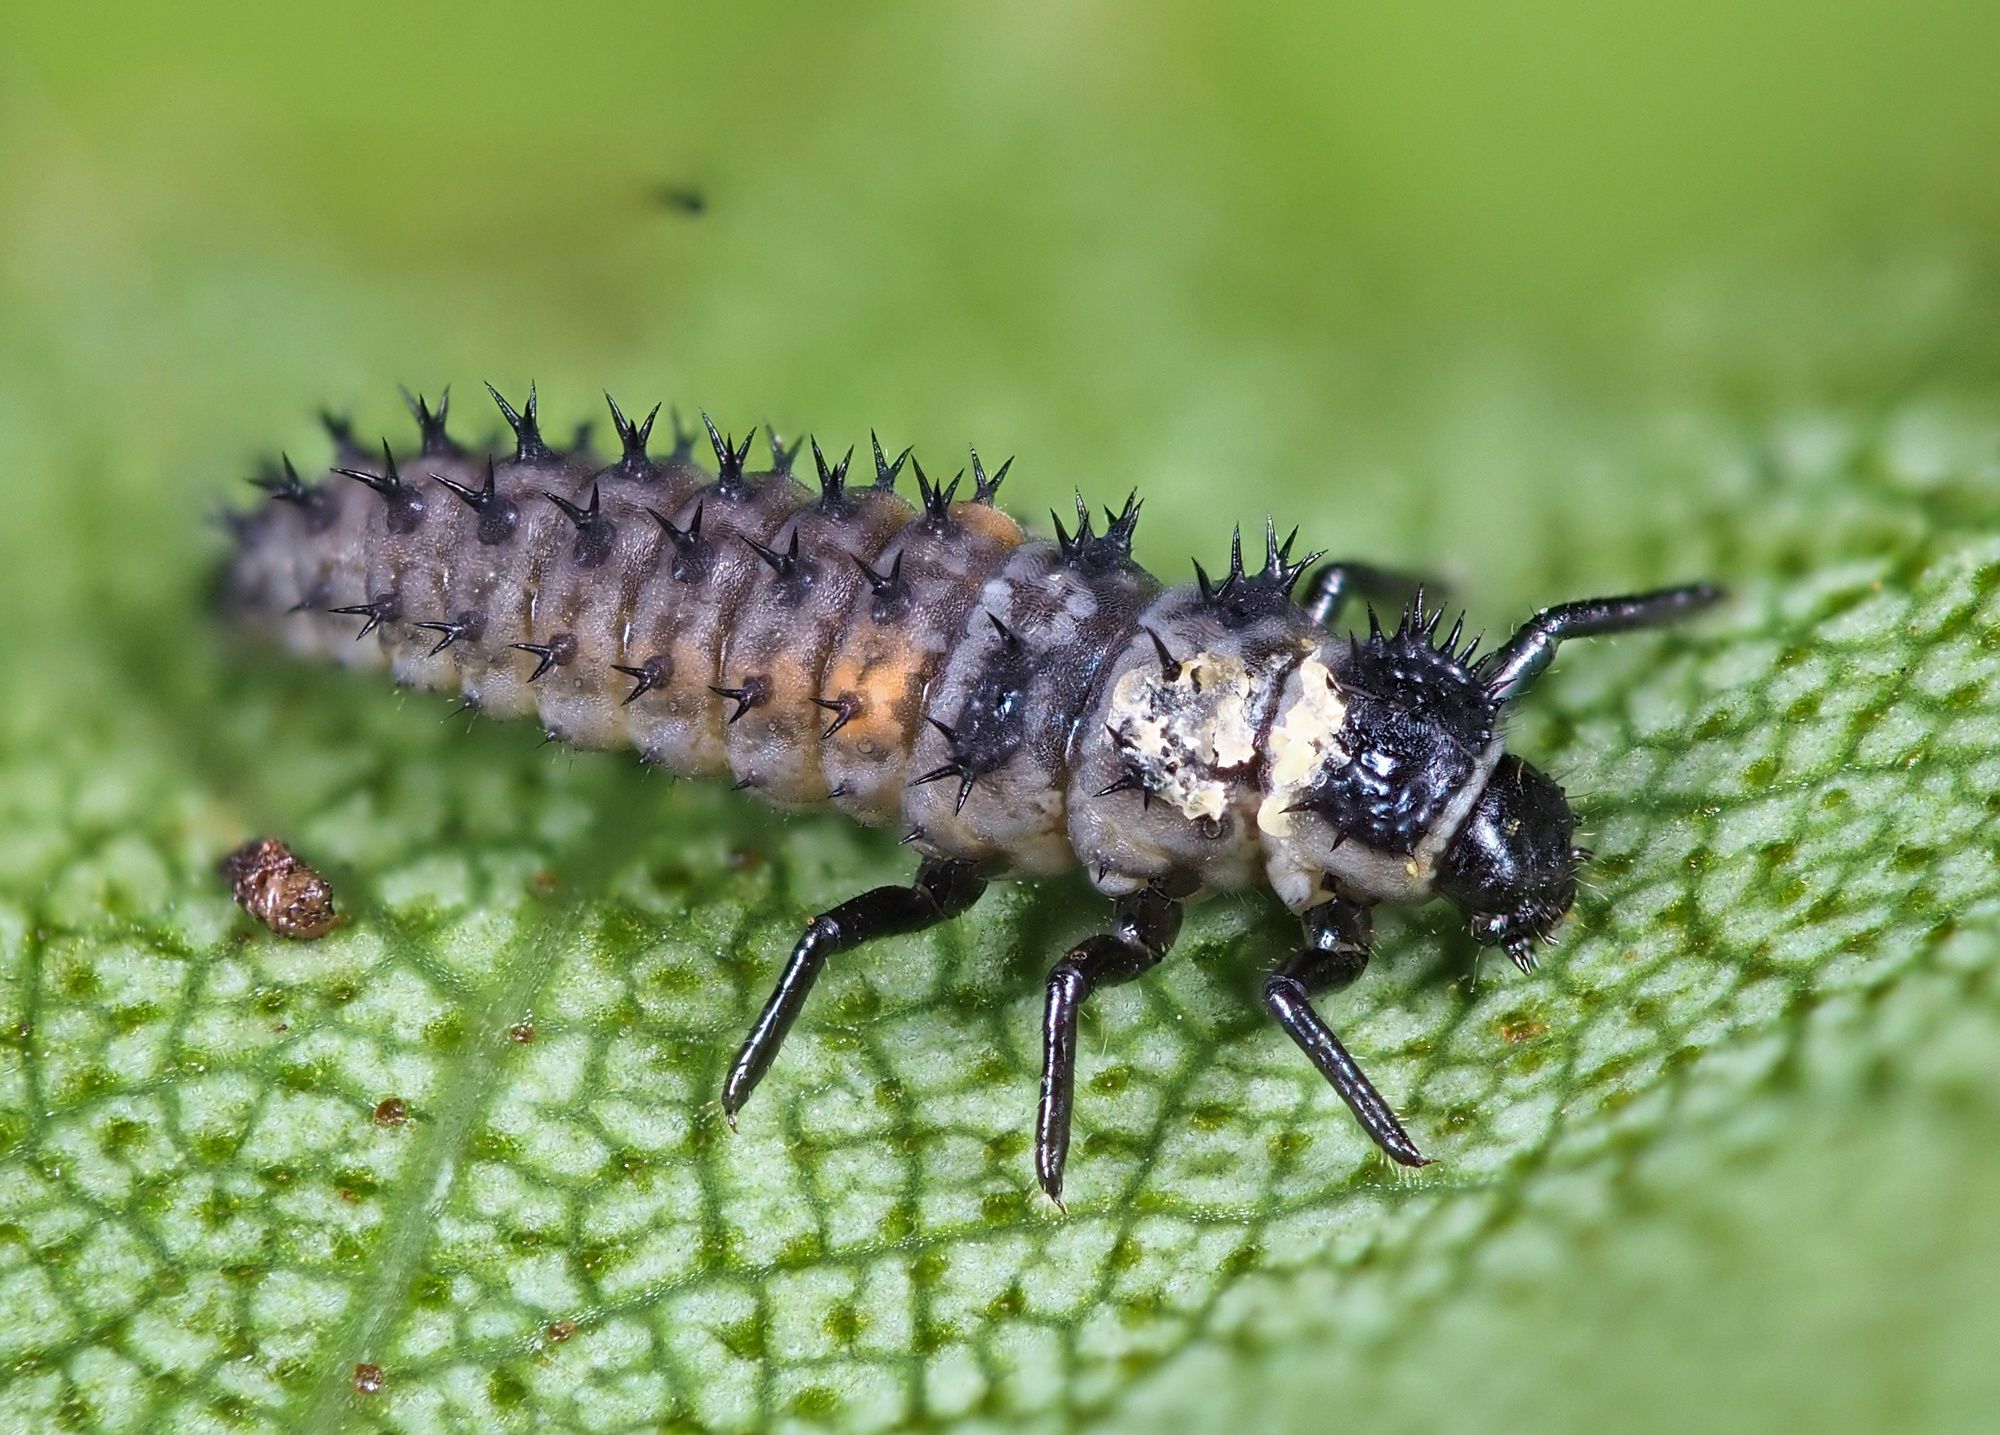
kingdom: Animalia
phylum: Arthropoda
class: Insecta
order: Coleoptera
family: Coccinellidae
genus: Harmonia
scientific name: Harmonia axyridis
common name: Harlequin ladybird
